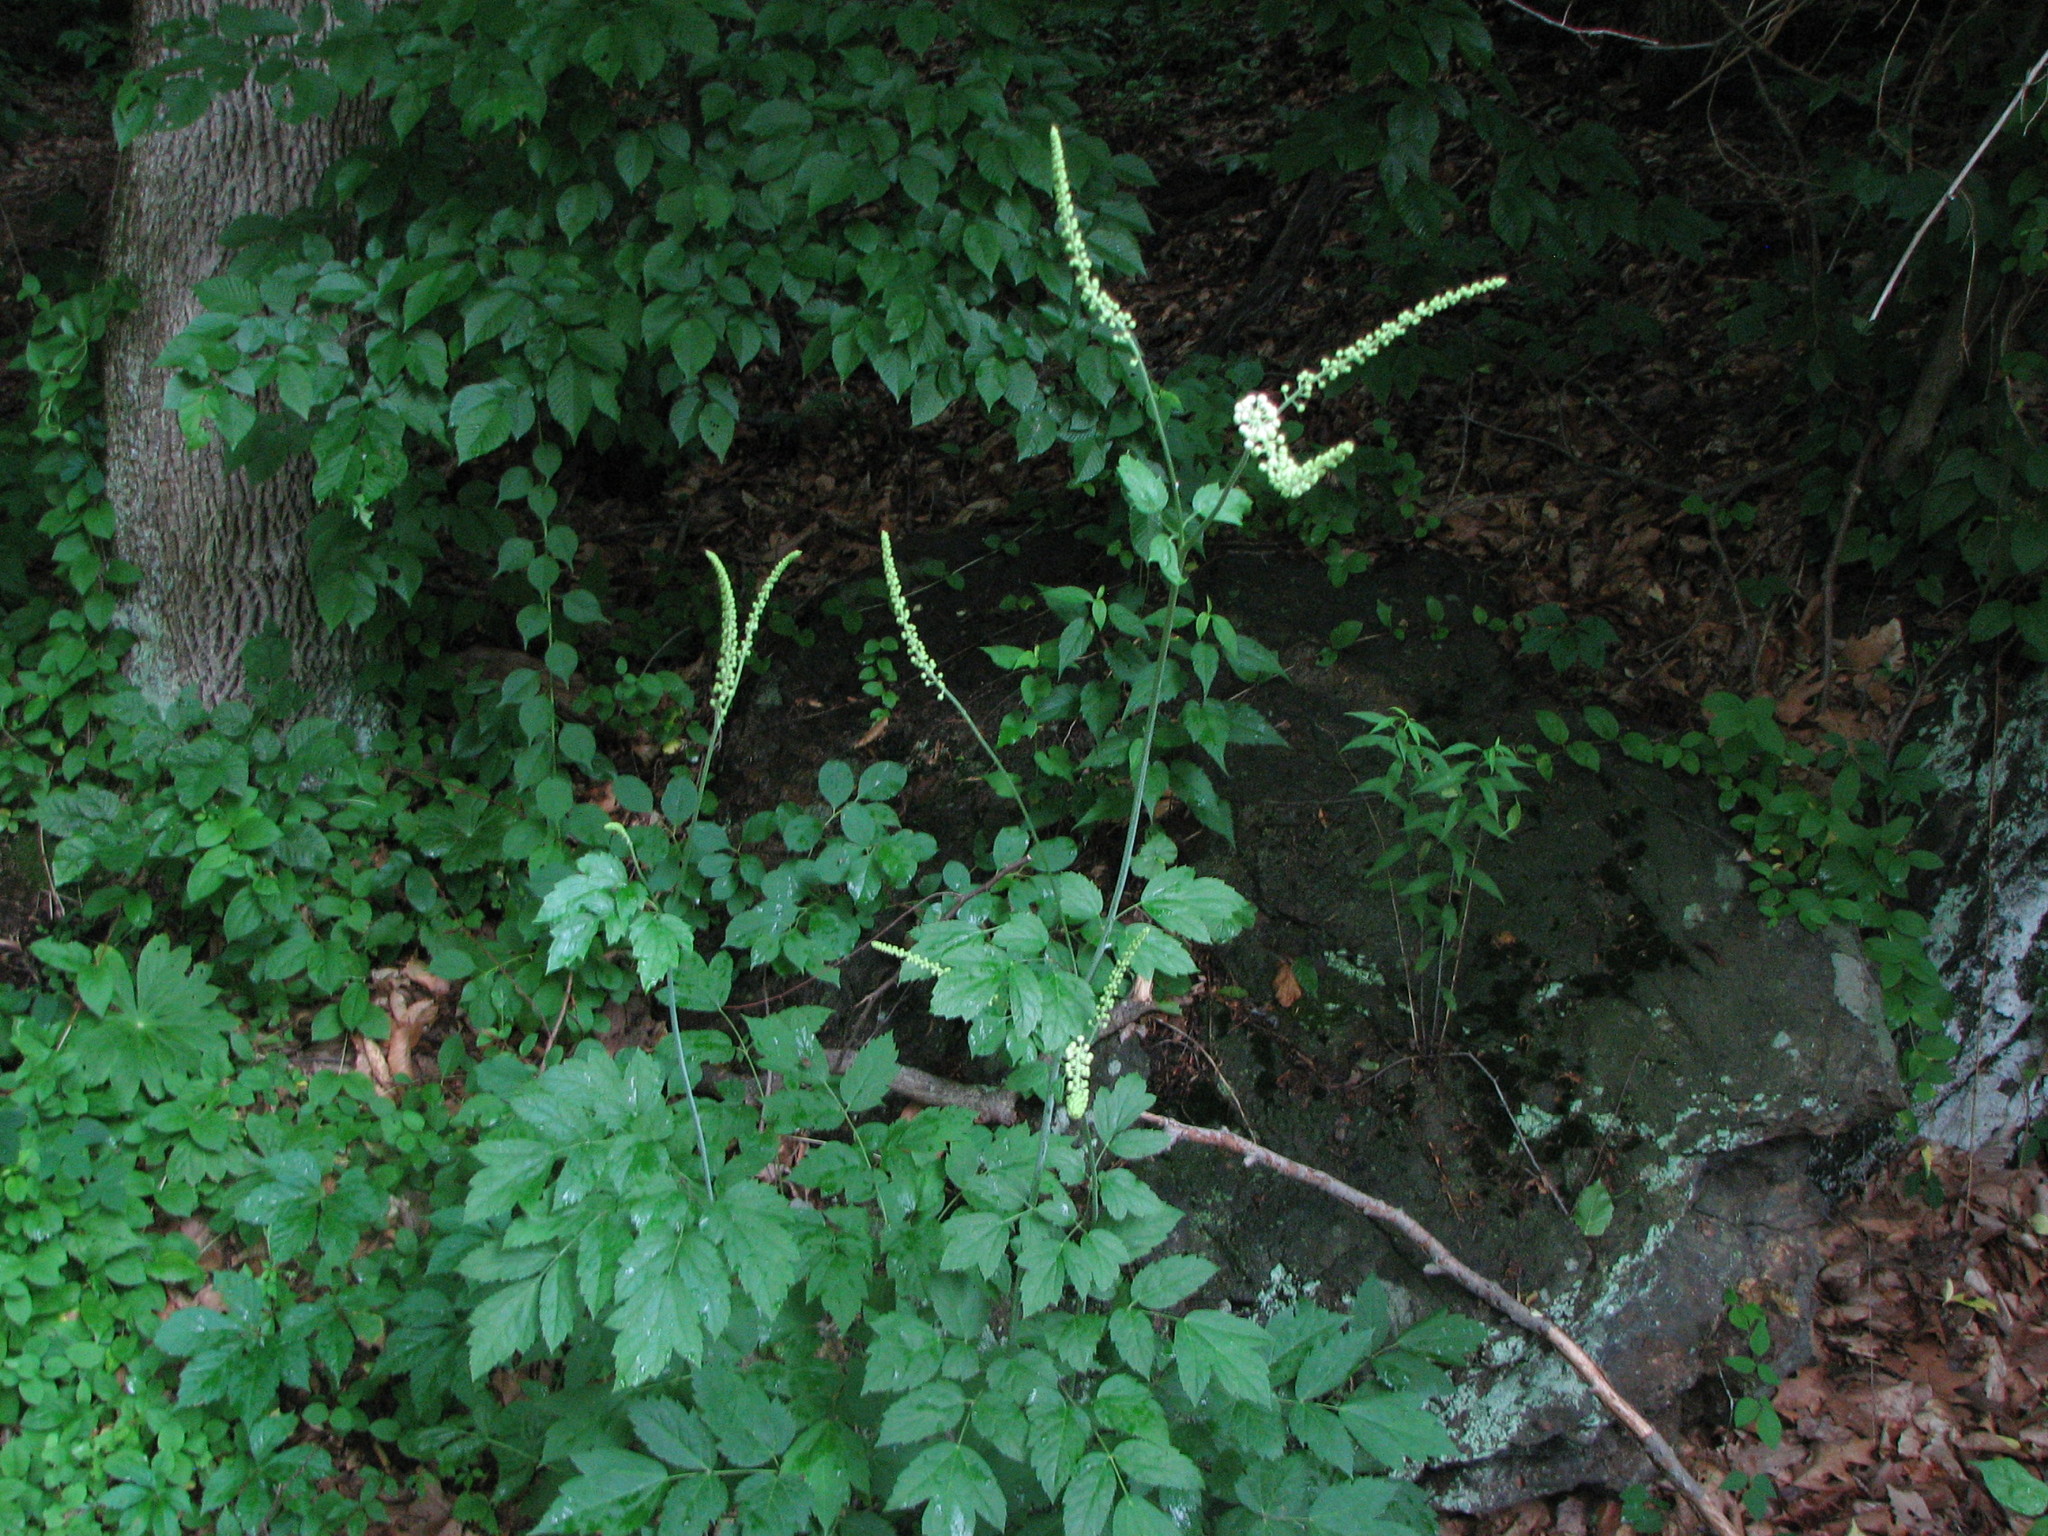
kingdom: Plantae
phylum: Tracheophyta
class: Magnoliopsida
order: Ranunculales
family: Ranunculaceae
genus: Actaea
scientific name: Actaea racemosa
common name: Black cohosh
